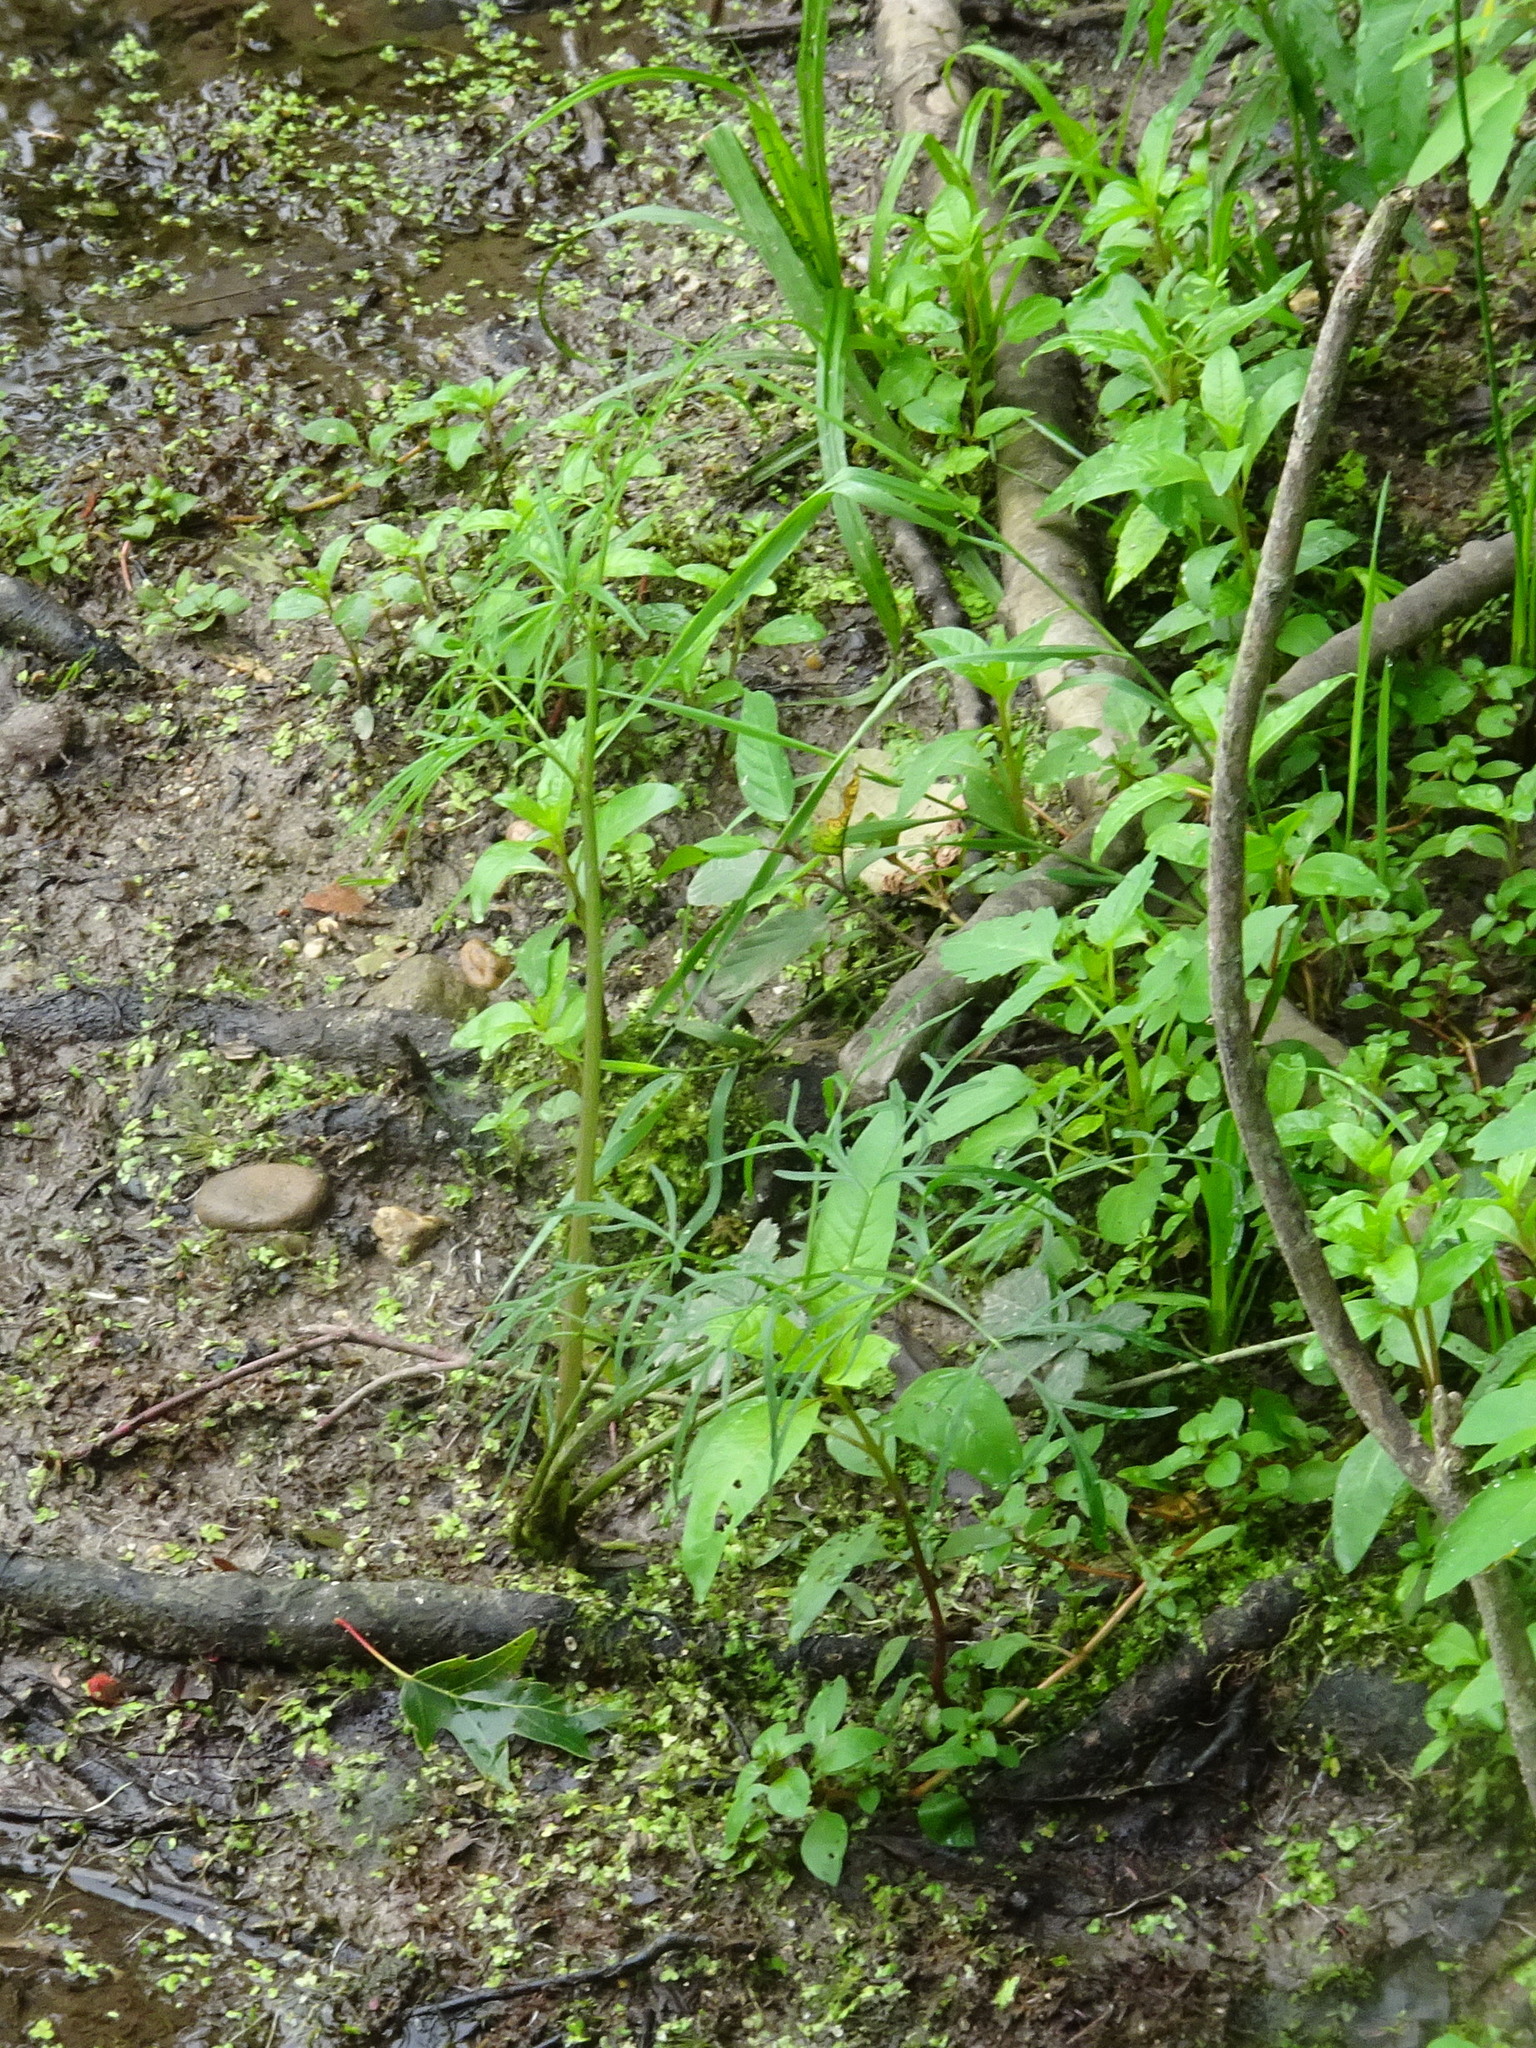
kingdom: Plantae
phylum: Tracheophyta
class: Magnoliopsida
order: Apiales
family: Apiaceae
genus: Cicuta
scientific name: Cicuta bulbifera
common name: Bulb-bearing water-hemlock
